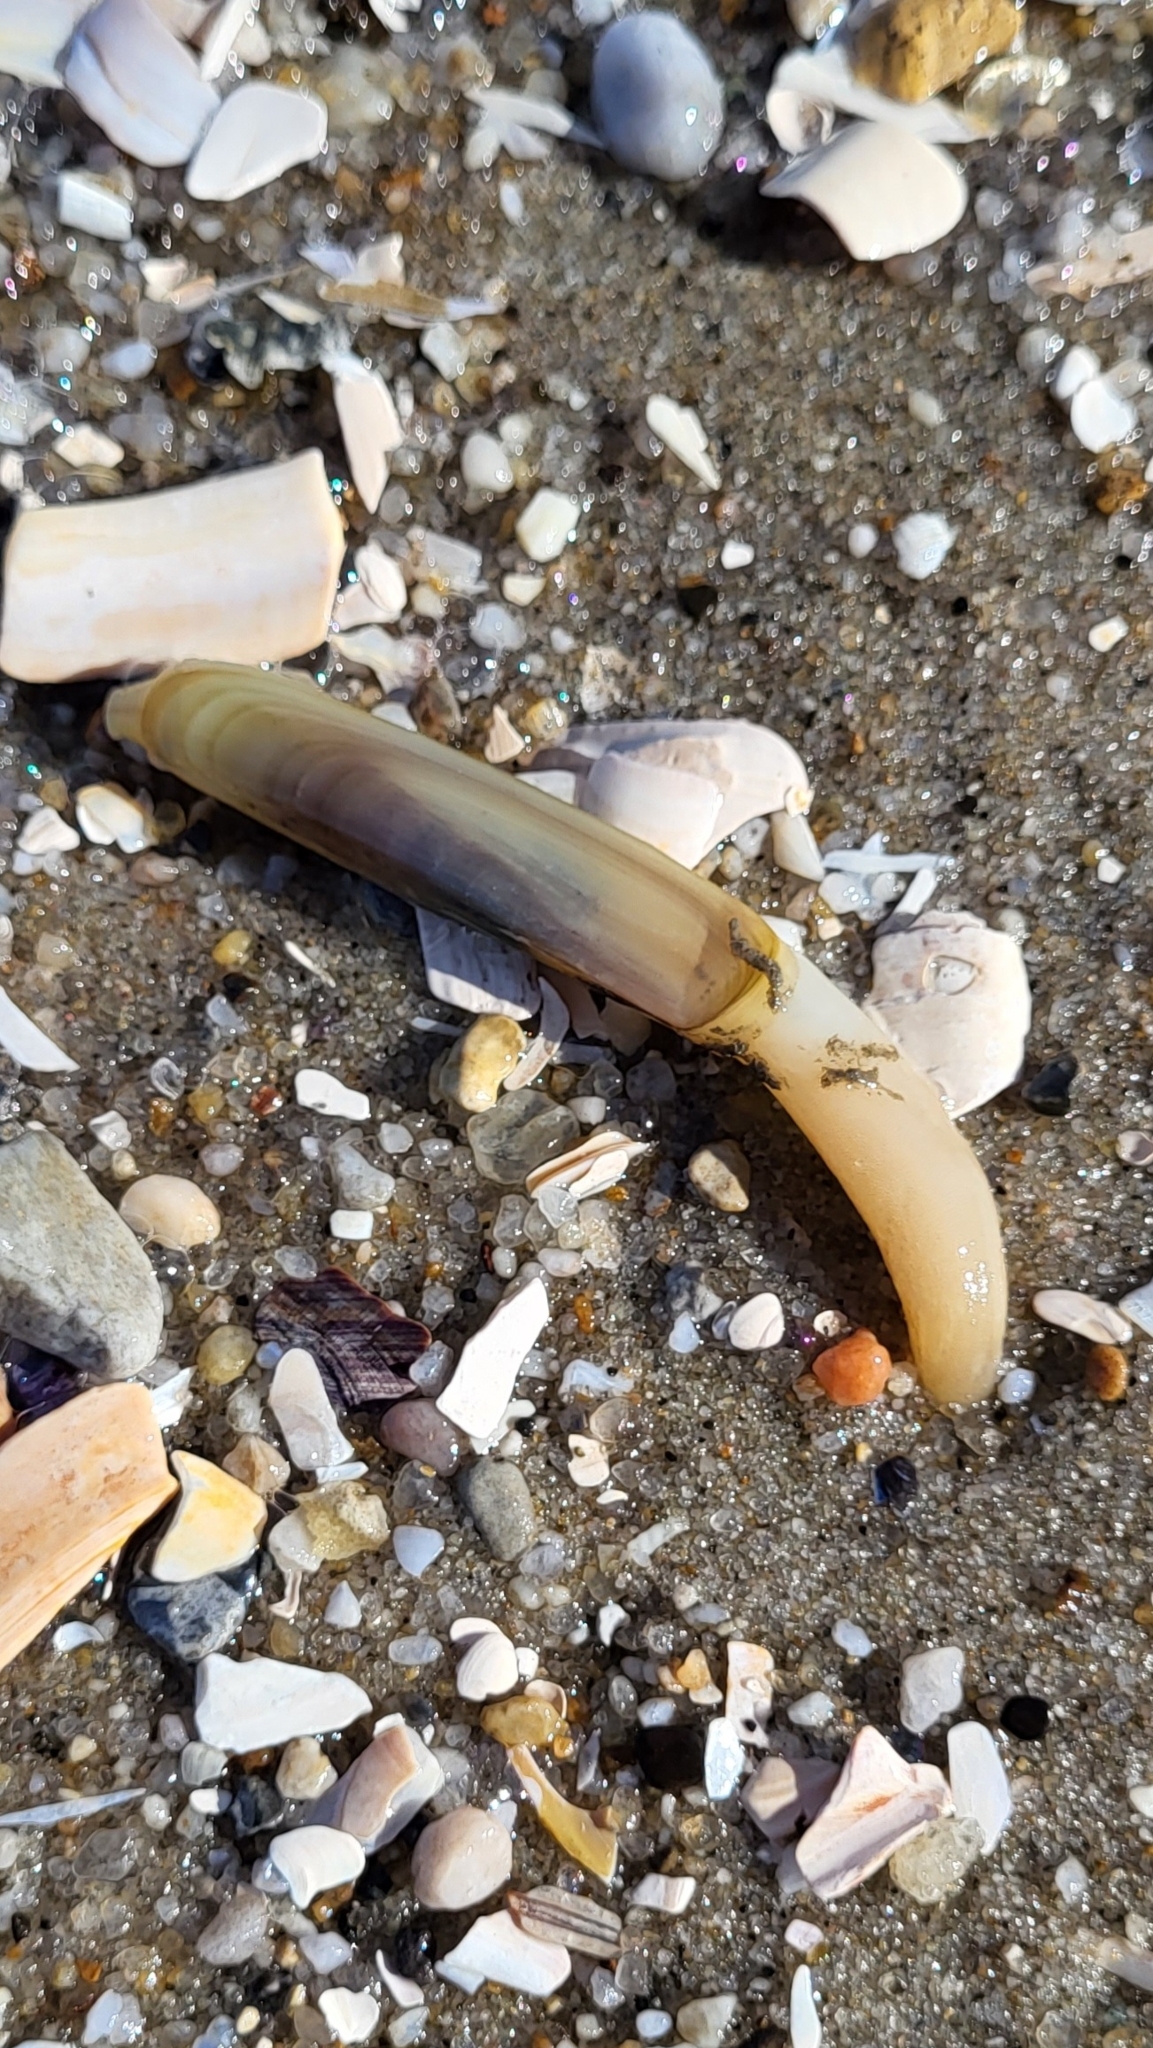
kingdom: Animalia
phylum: Mollusca
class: Bivalvia
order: Adapedonta
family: Pharidae
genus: Ensis
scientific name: Ensis leei
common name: American jack knife clam
